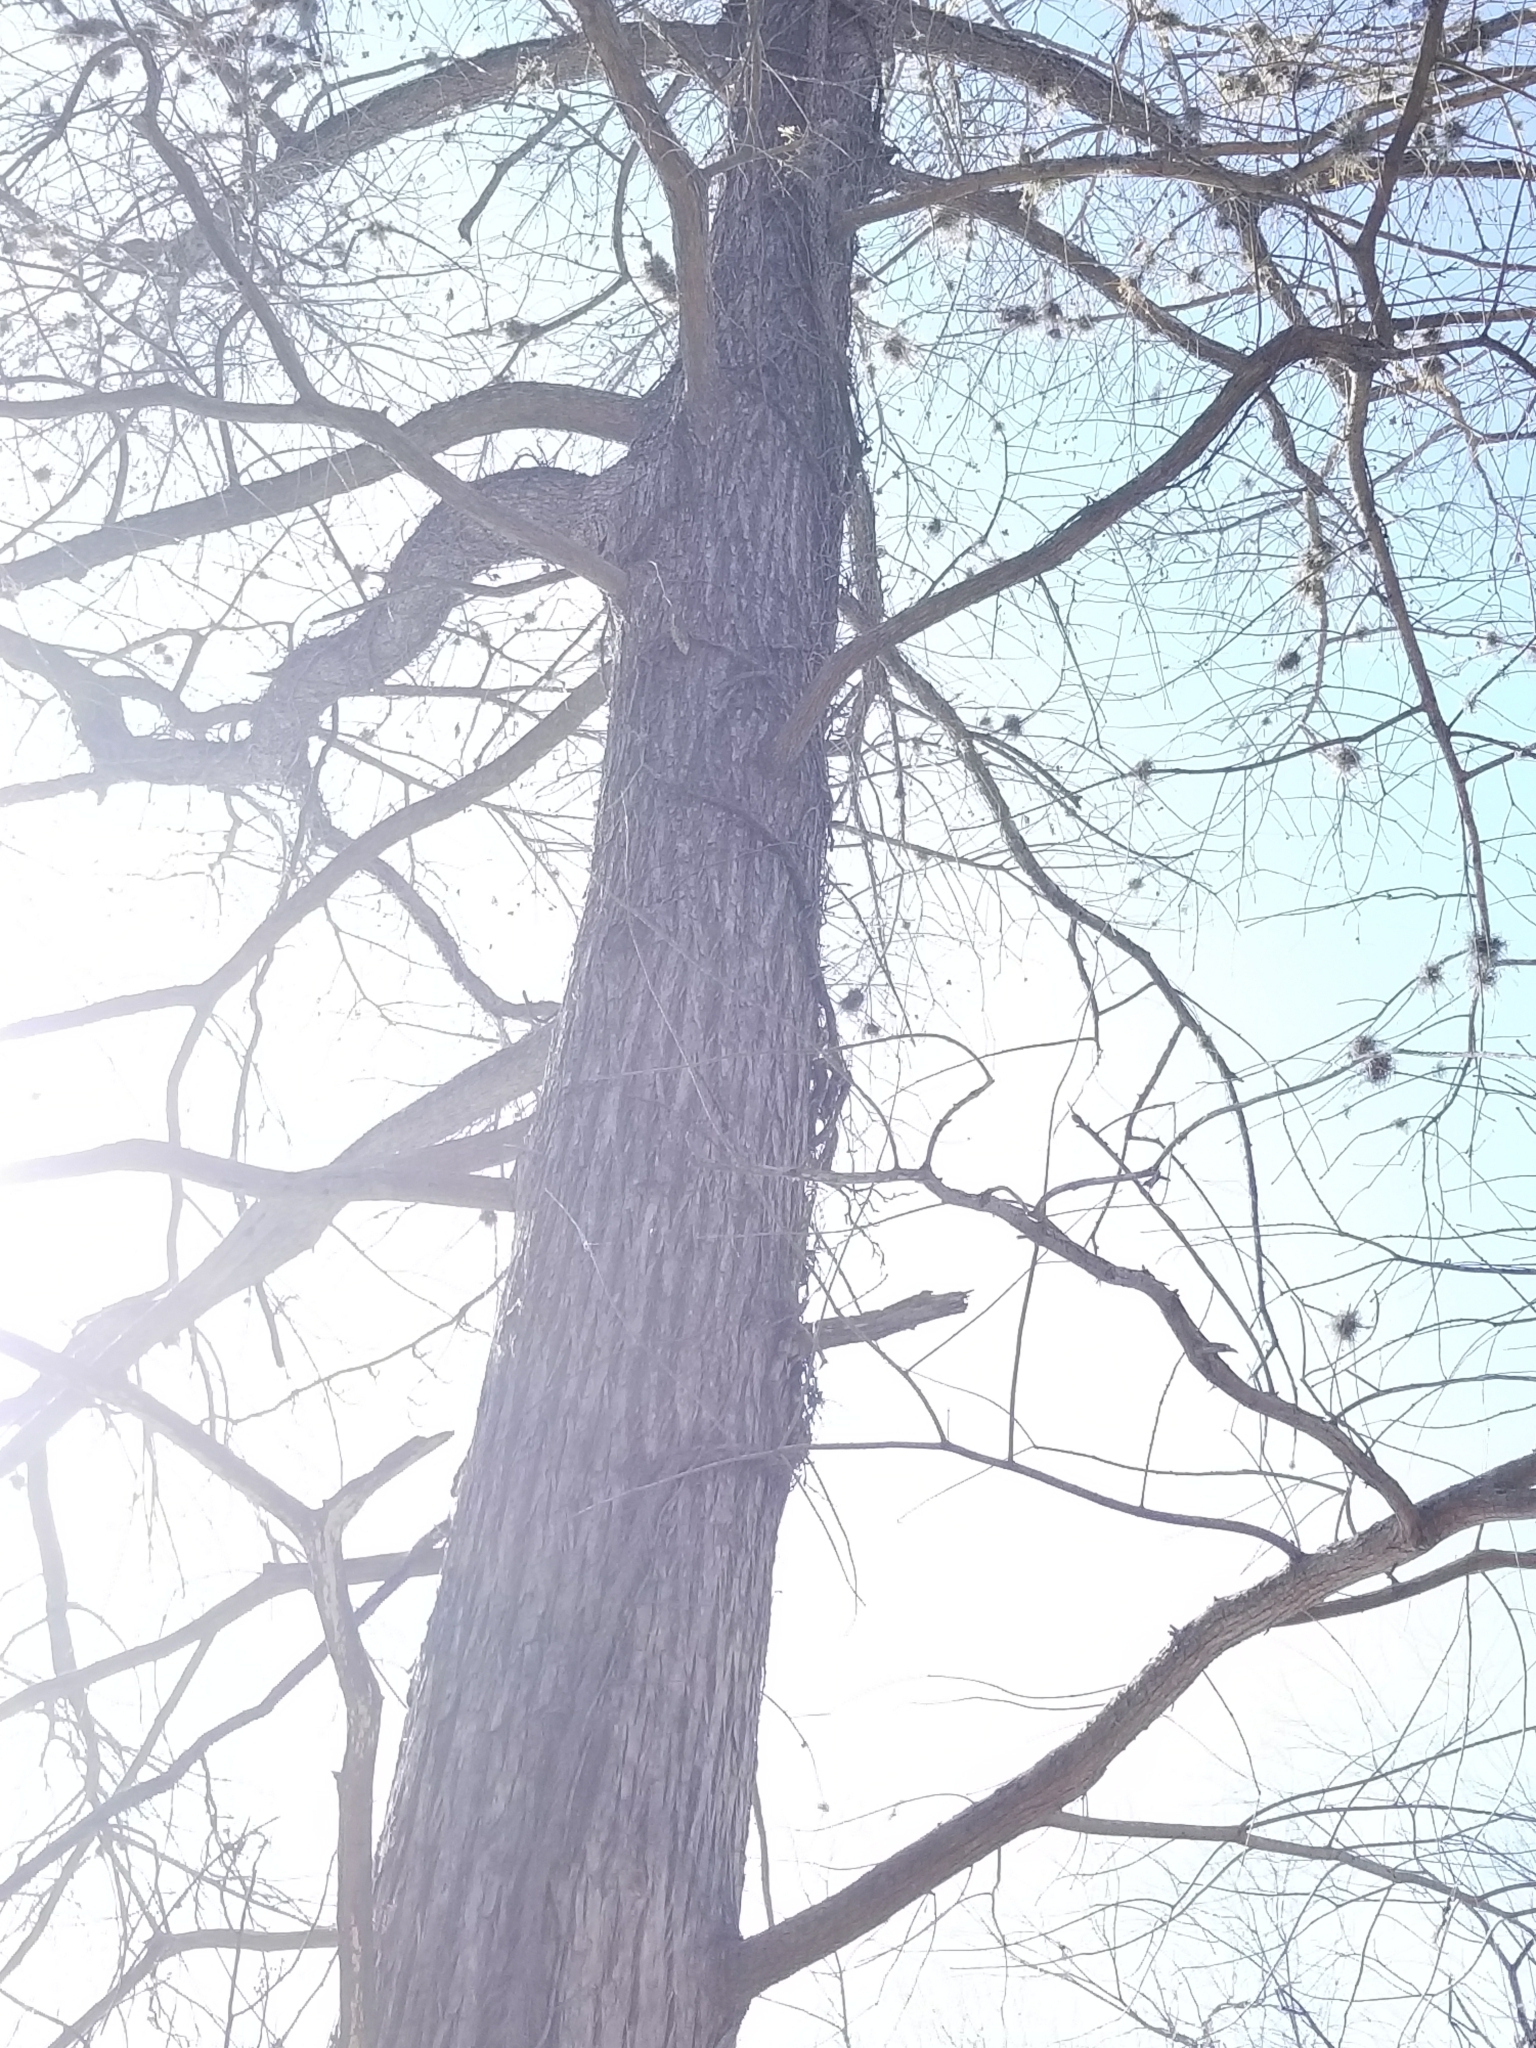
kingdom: Plantae
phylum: Tracheophyta
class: Pinopsida
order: Pinales
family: Cupressaceae
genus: Taxodium
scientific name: Taxodium distichum
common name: Bald cypress
